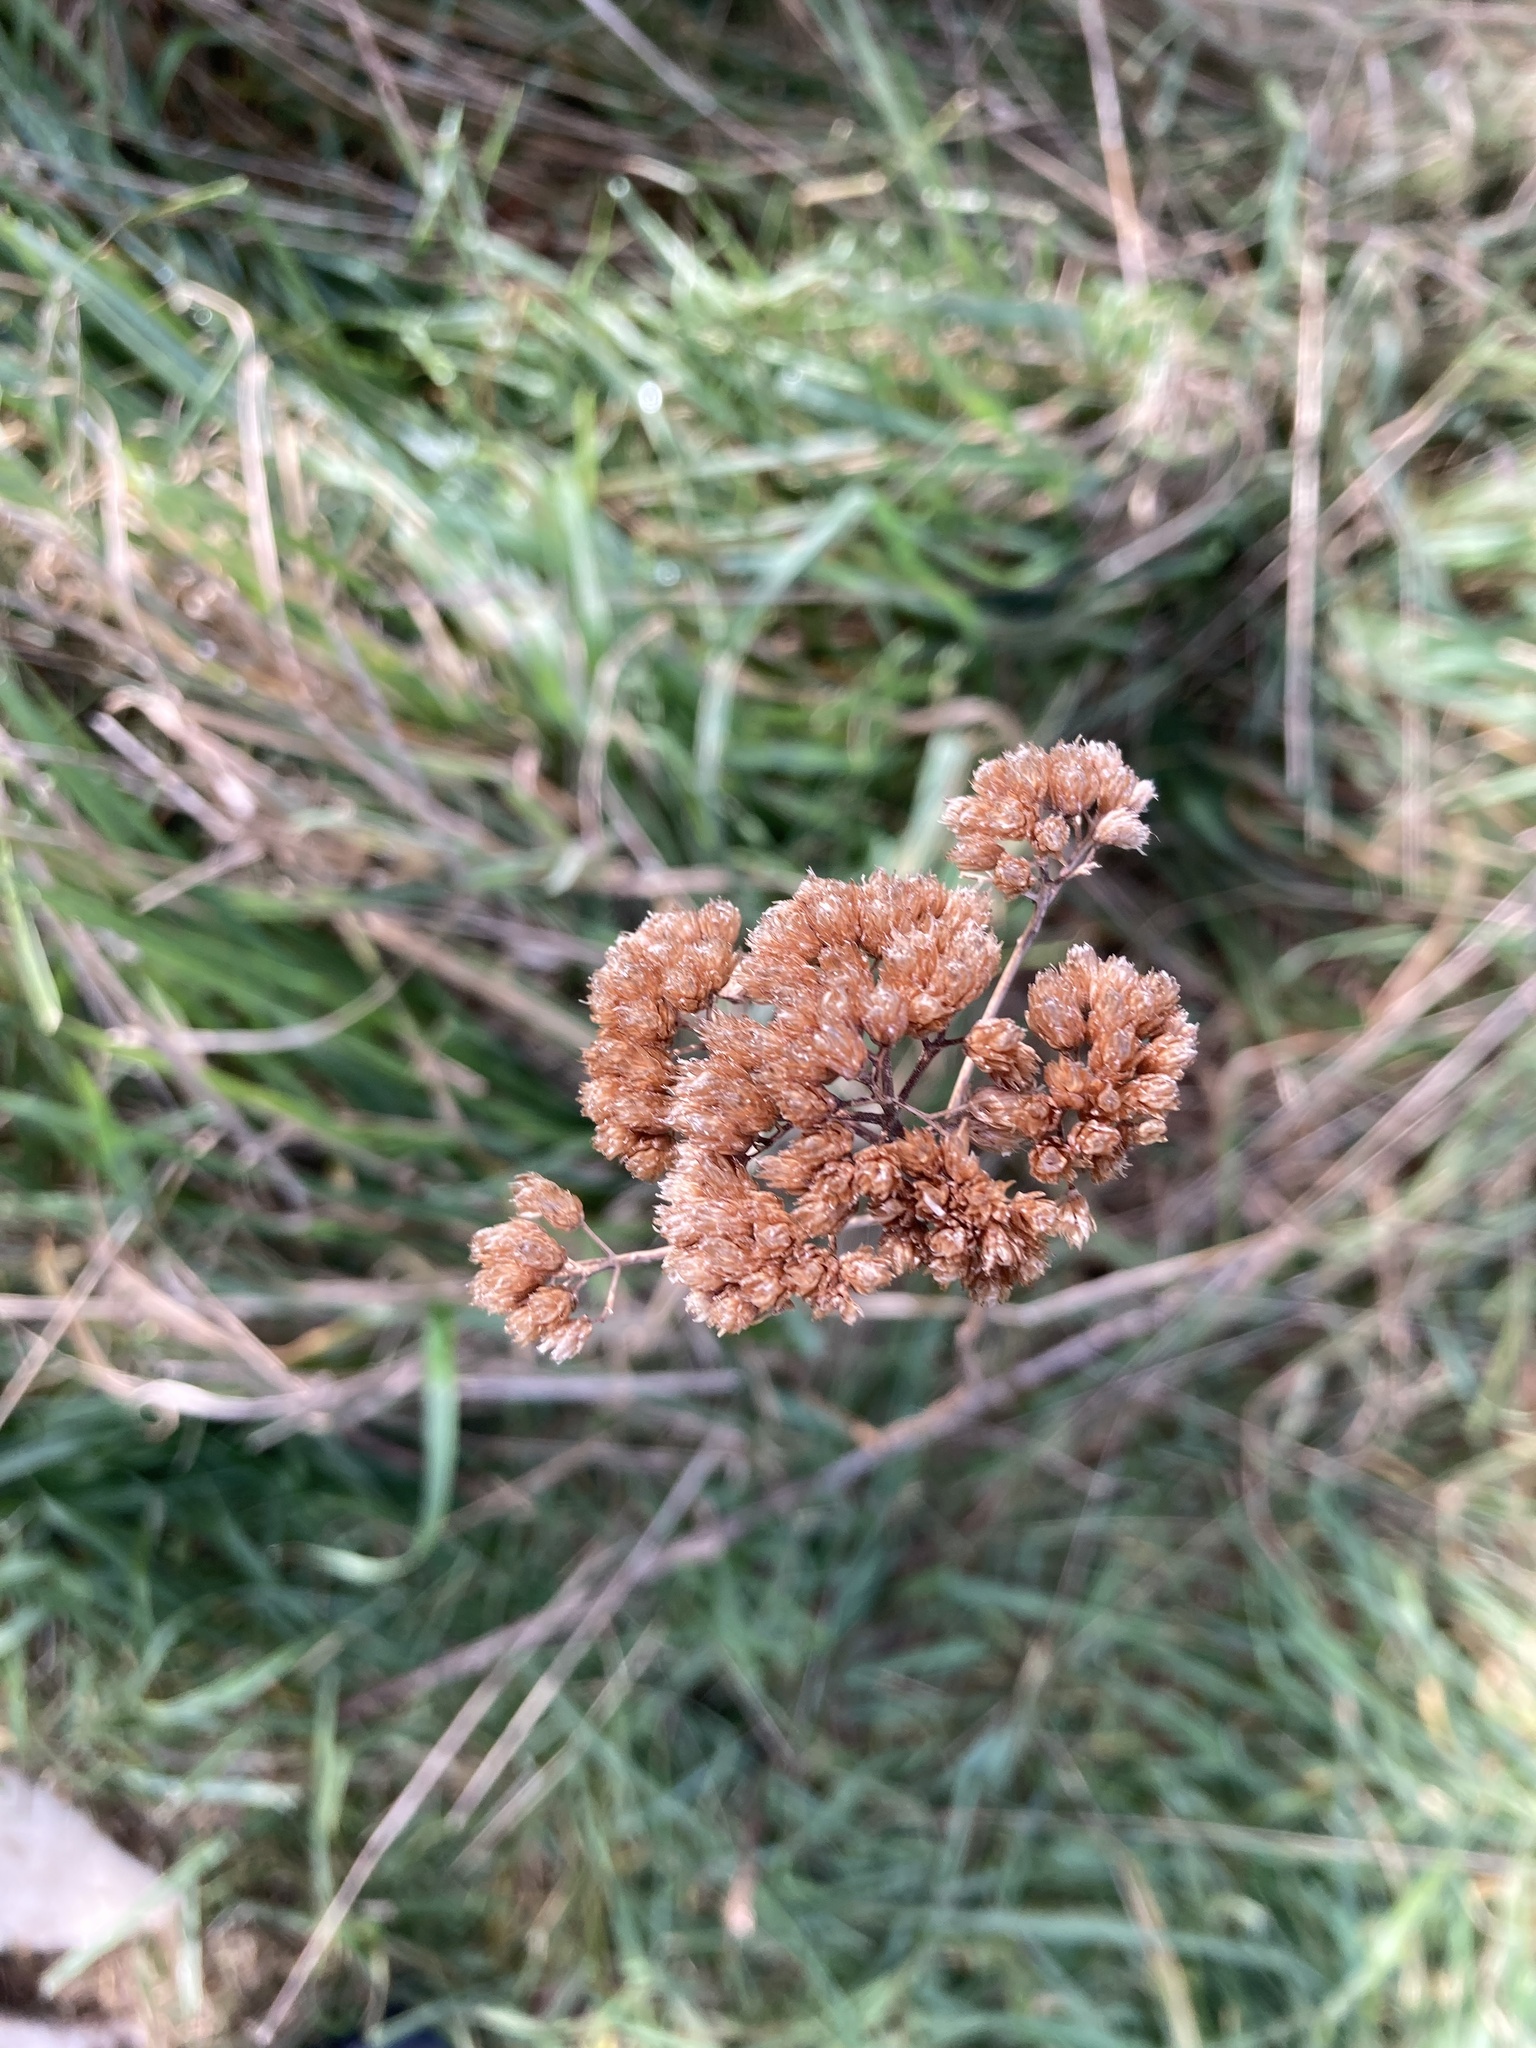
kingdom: Plantae
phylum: Tracheophyta
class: Magnoliopsida
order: Asterales
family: Asteraceae
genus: Achillea
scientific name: Achillea millefolium
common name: Yarrow
